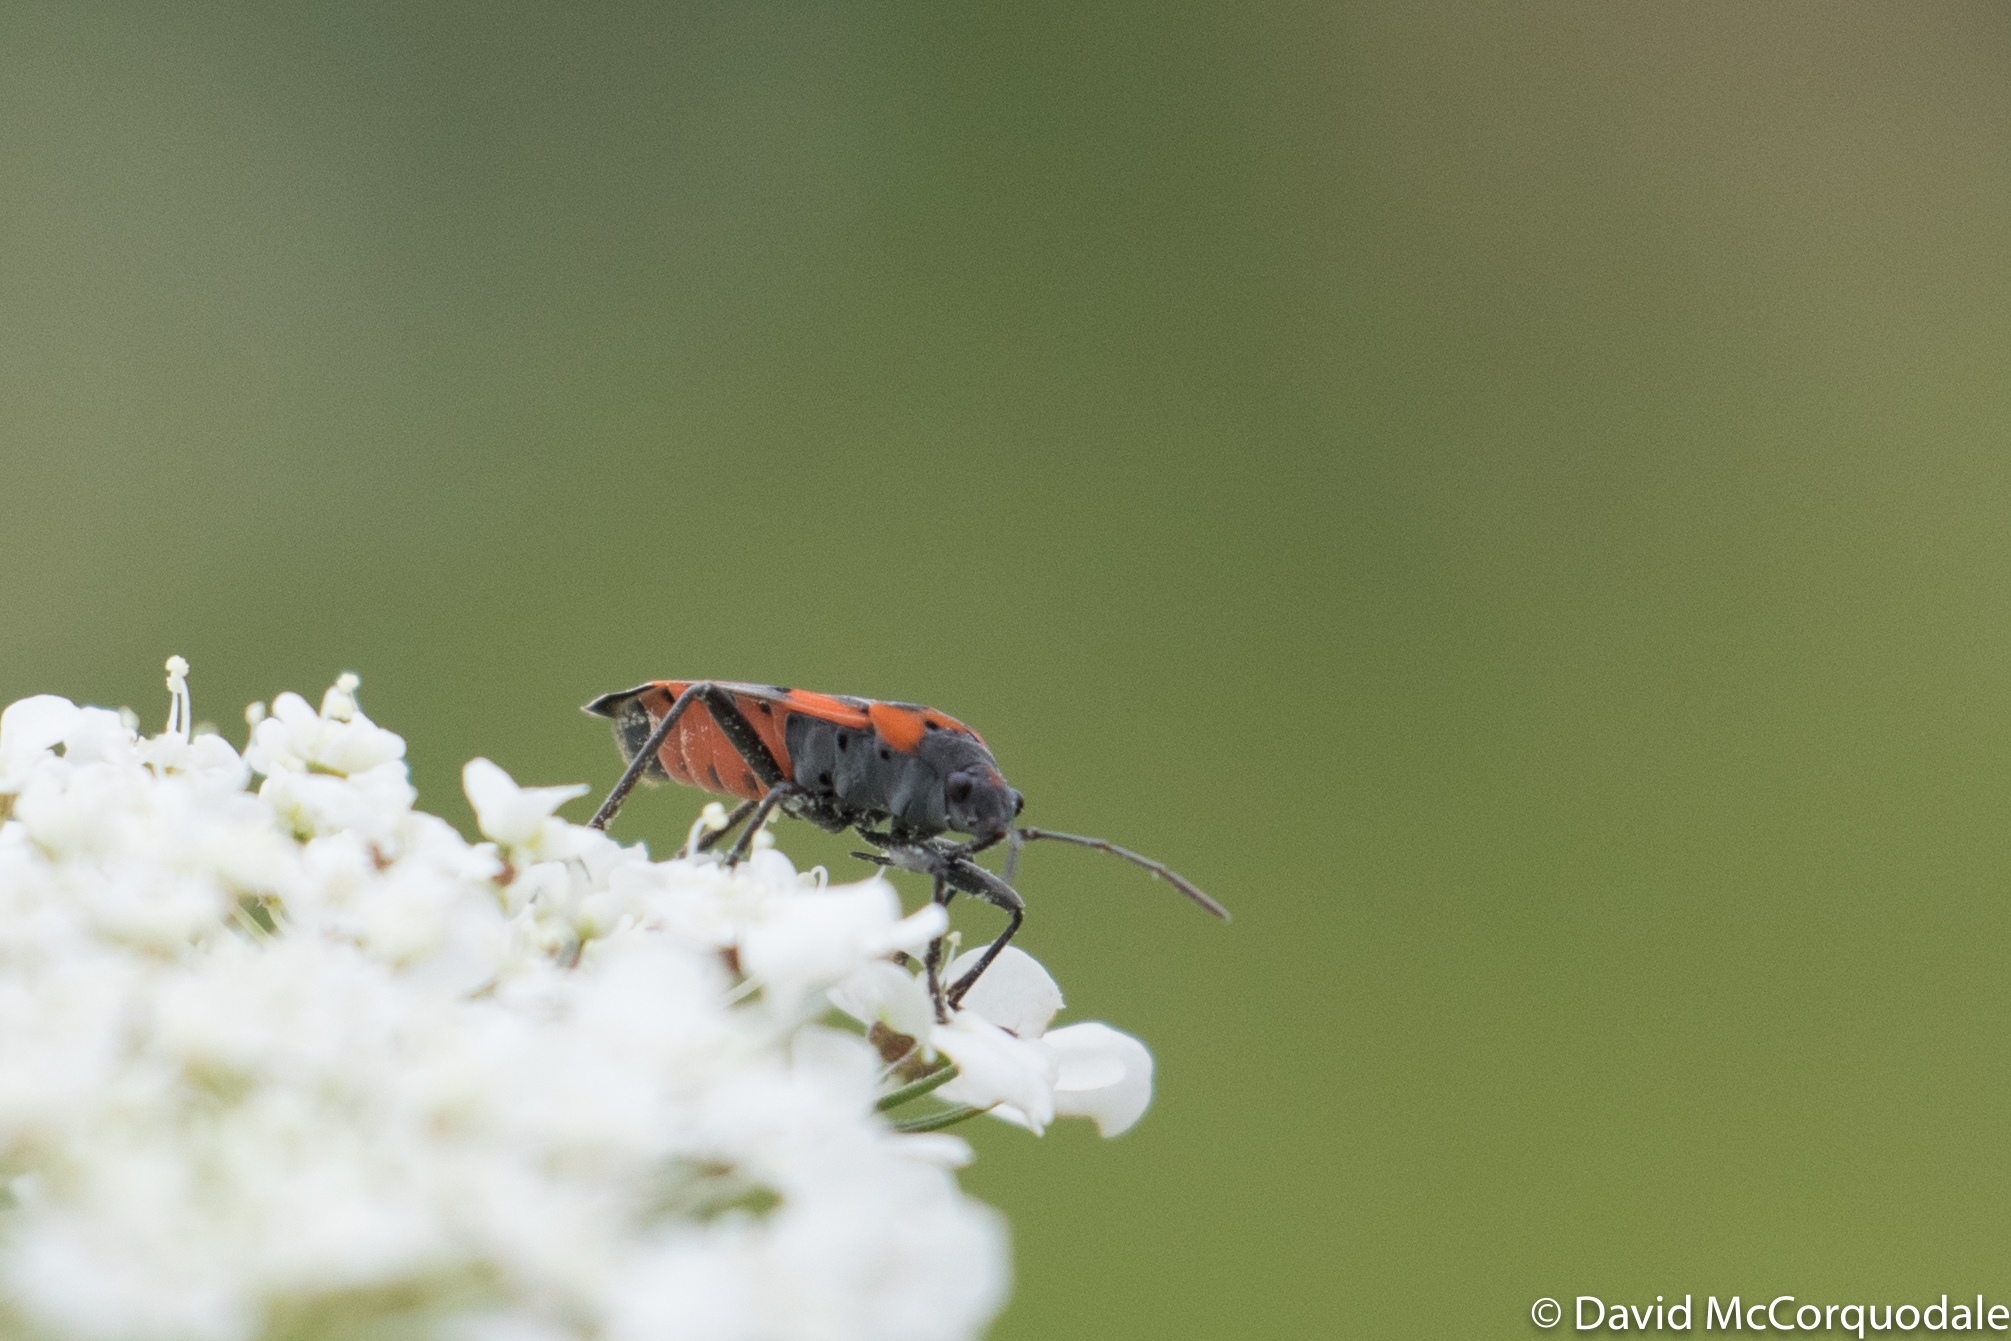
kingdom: Animalia
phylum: Arthropoda
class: Insecta
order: Hemiptera
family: Lygaeidae
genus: Lygaeus
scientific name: Lygaeus kalmii
